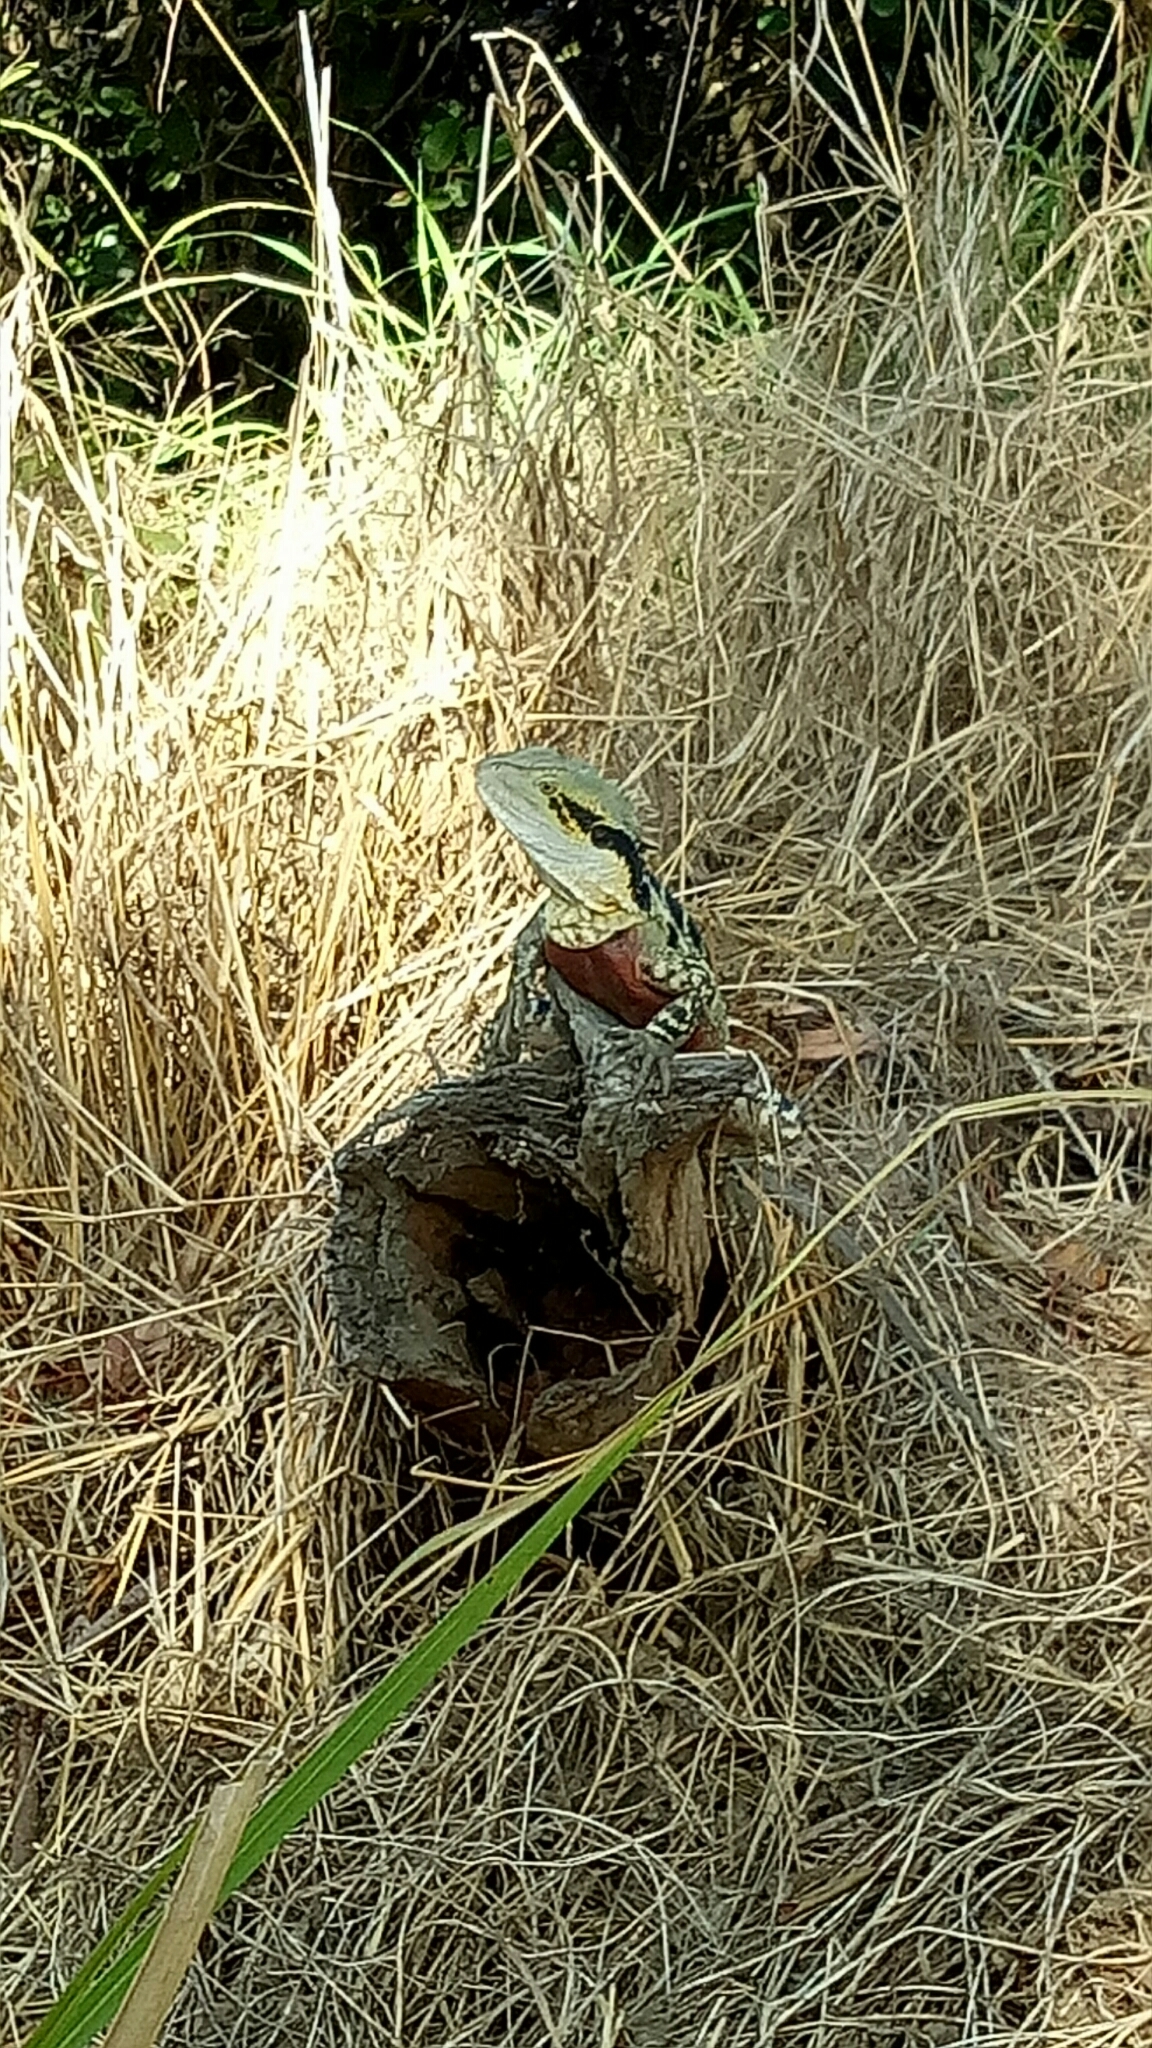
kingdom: Animalia
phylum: Chordata
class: Squamata
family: Agamidae
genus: Intellagama
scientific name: Intellagama lesueurii
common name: Eastern water dragon
